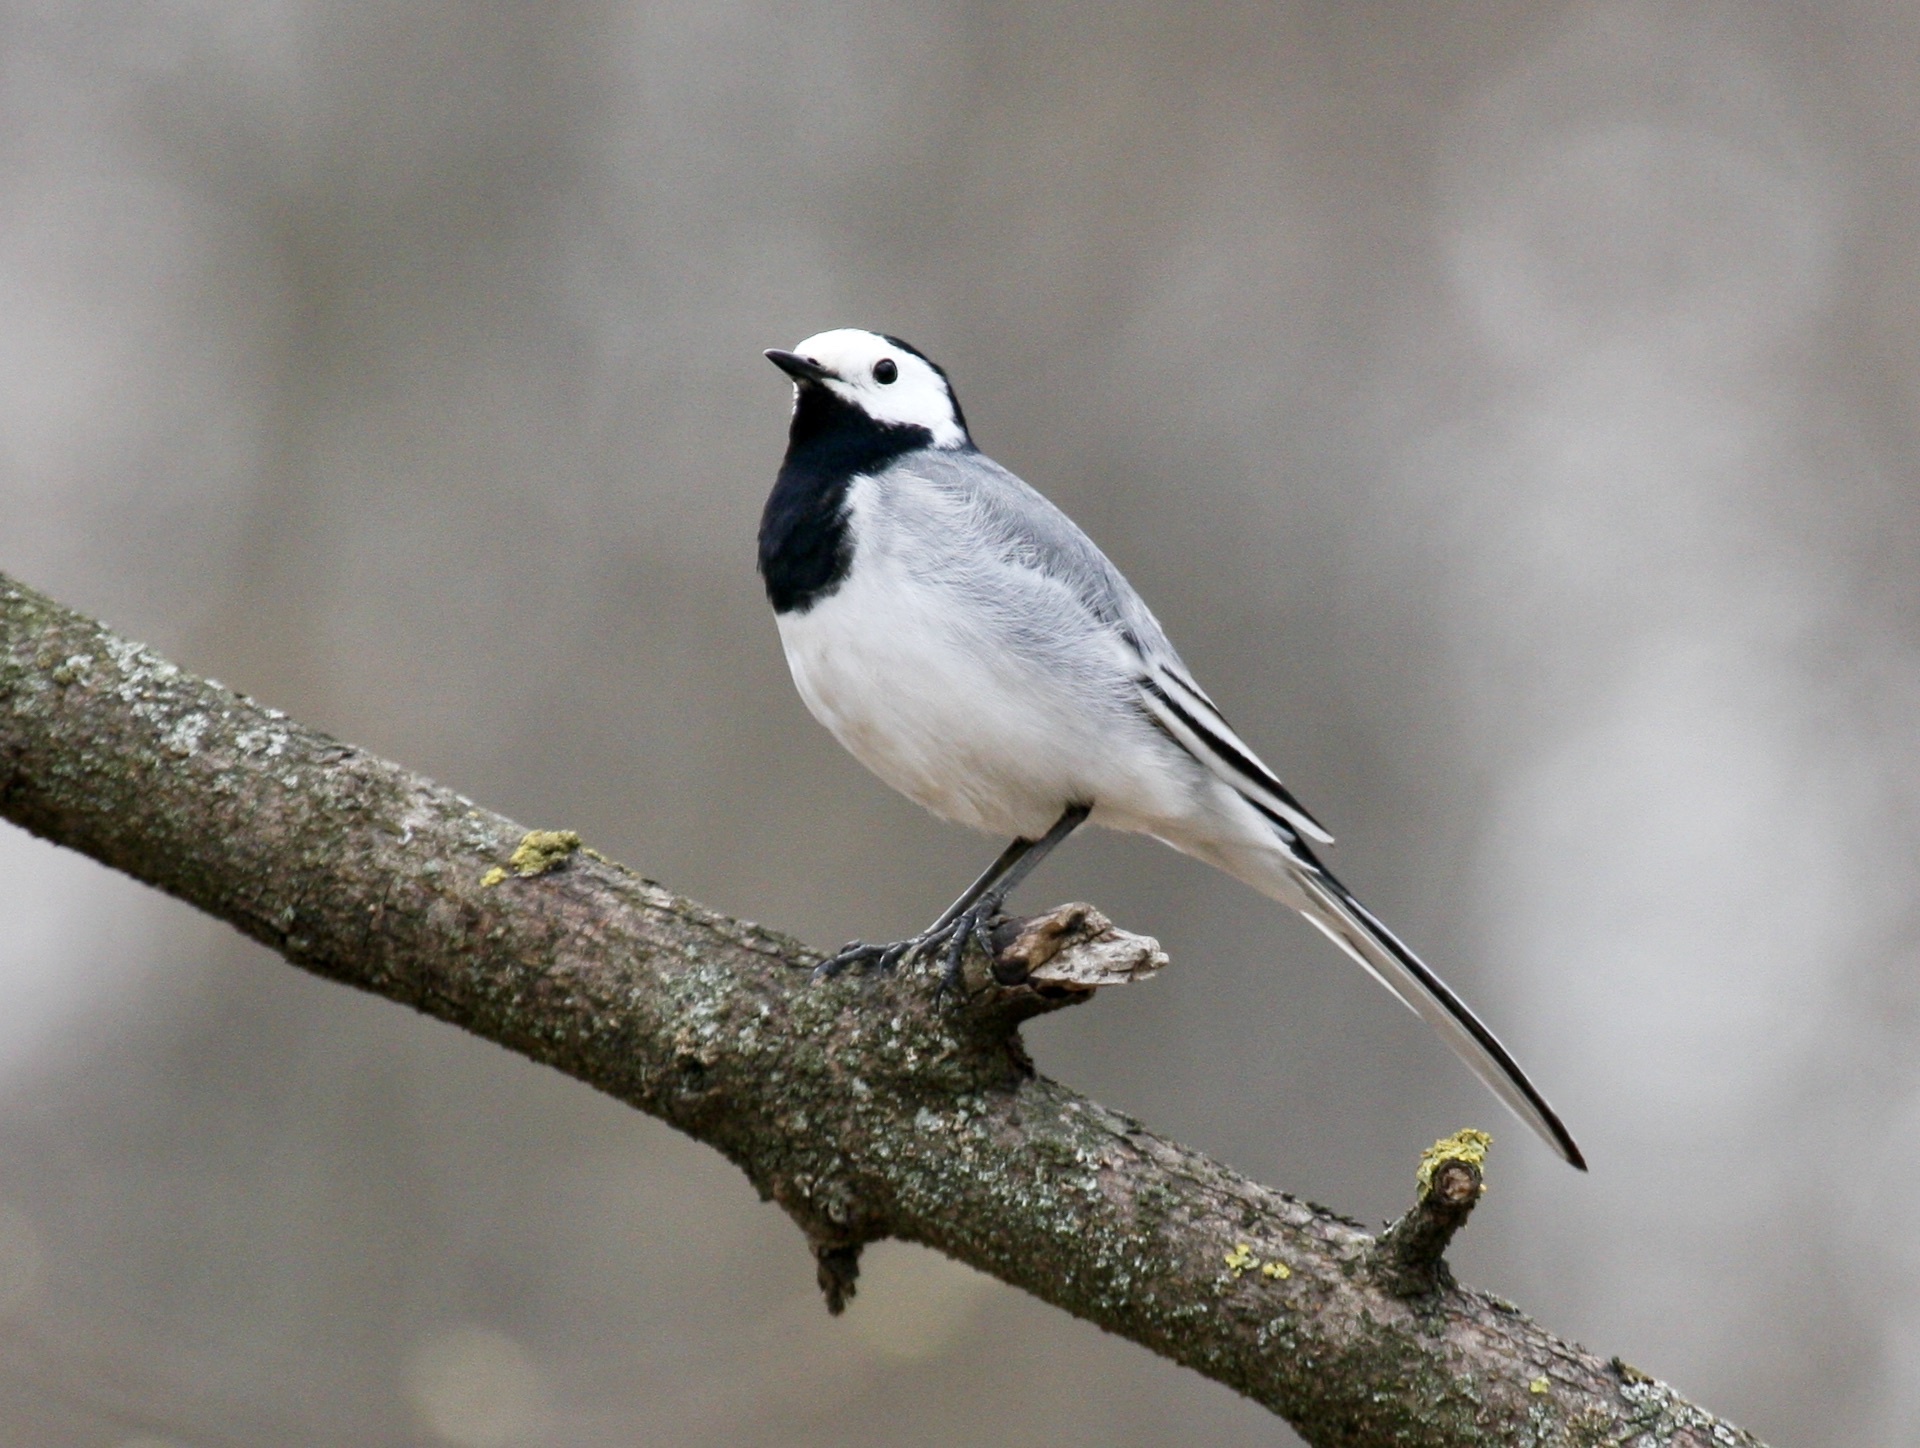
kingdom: Animalia
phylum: Chordata
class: Aves
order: Passeriformes
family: Motacillidae
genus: Motacilla
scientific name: Motacilla alba
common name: White wagtail
